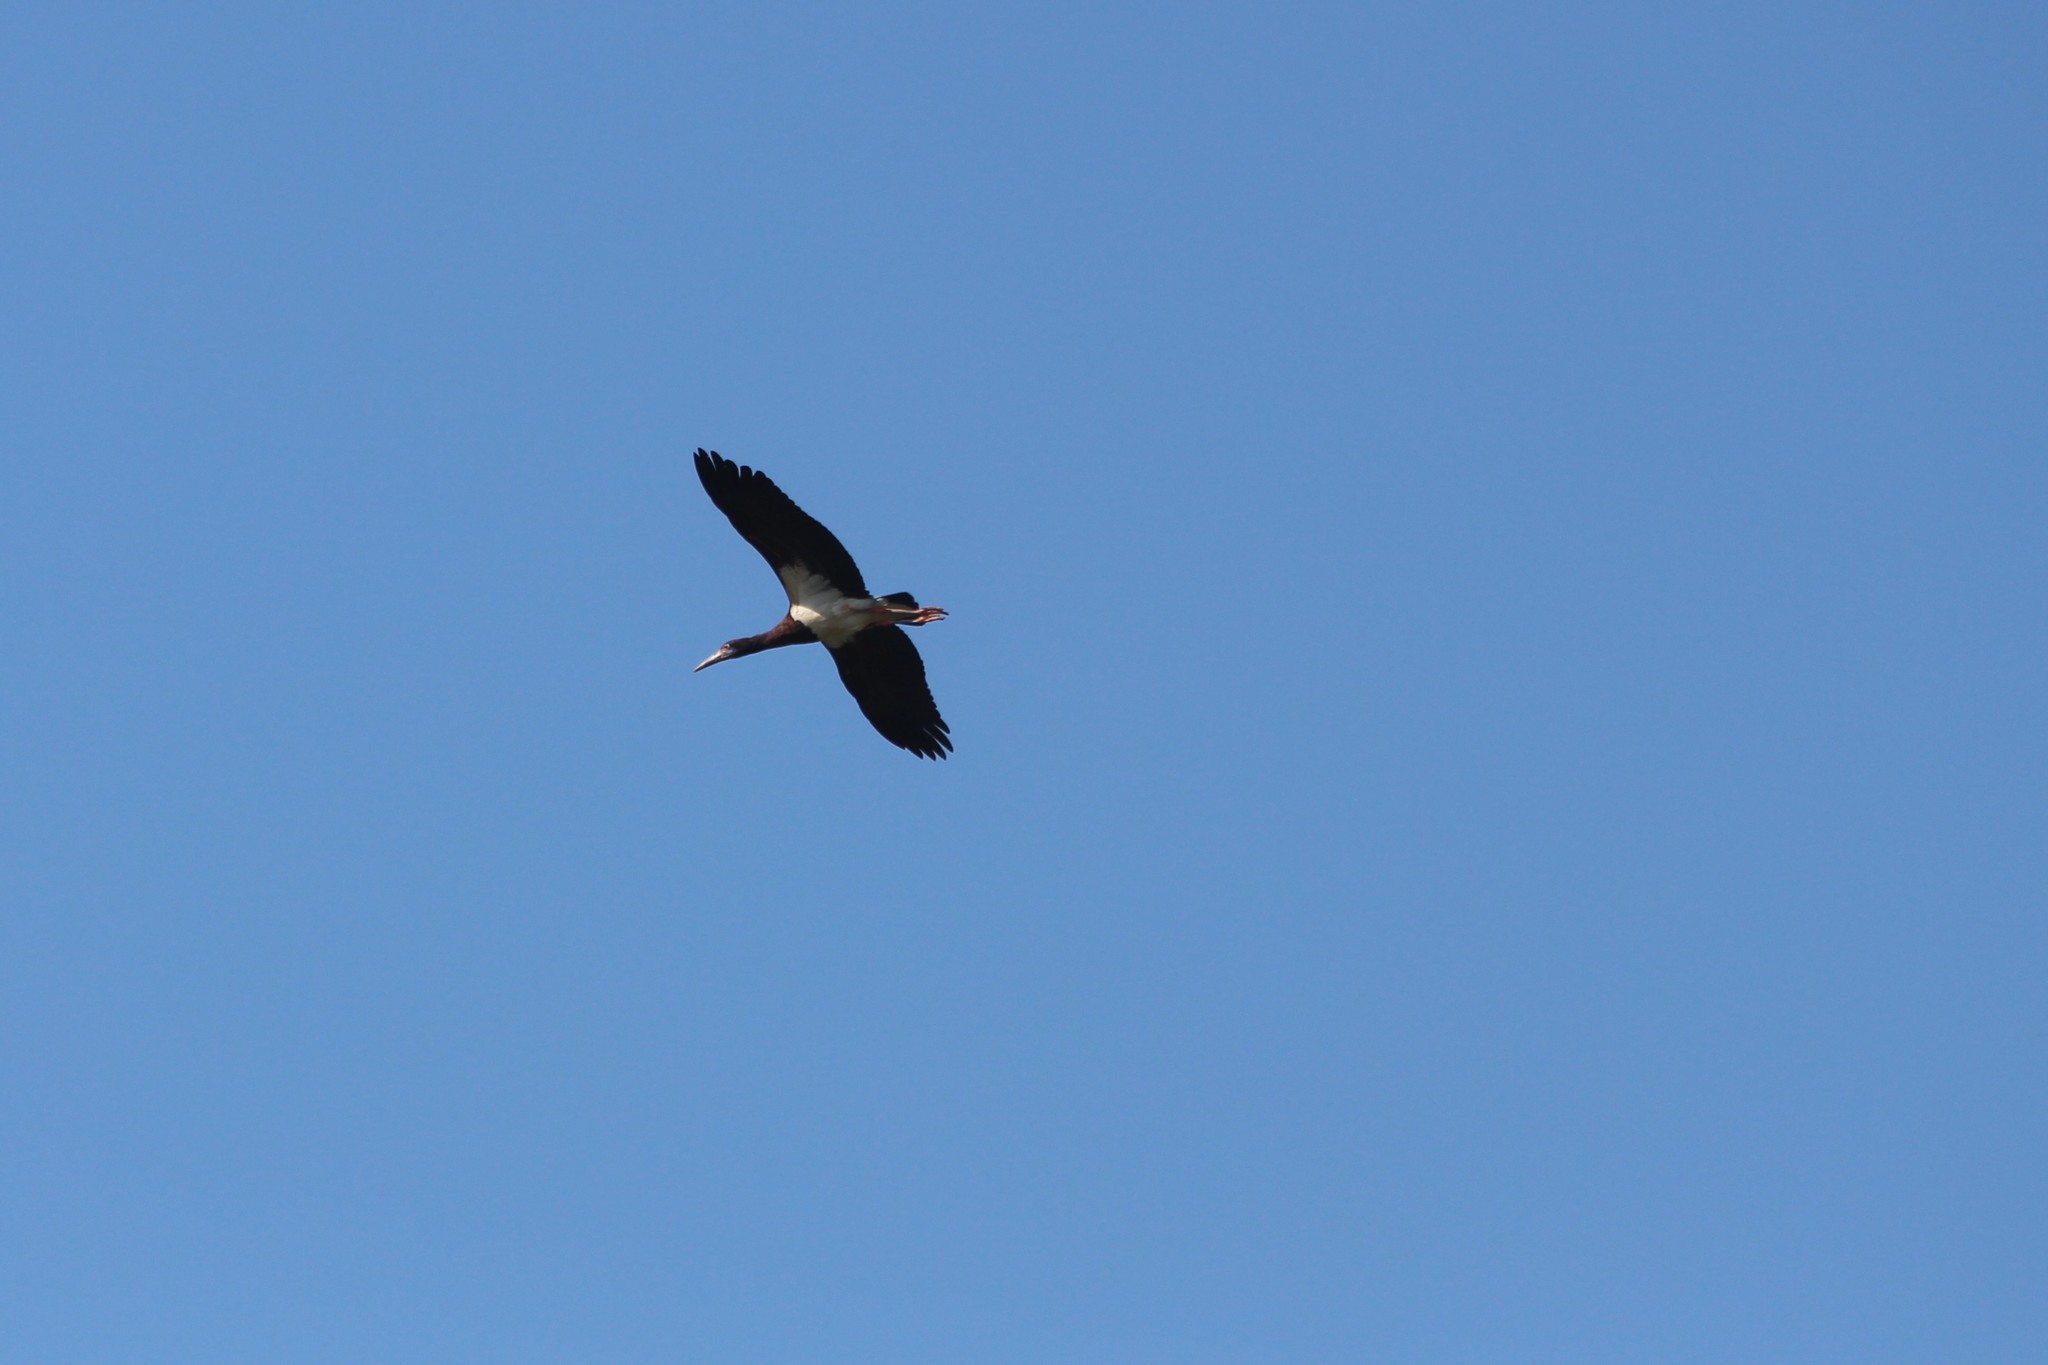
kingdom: Animalia
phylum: Chordata
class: Aves
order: Ciconiiformes
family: Ciconiidae
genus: Ciconia
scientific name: Ciconia abdimii
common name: Abdim's stork
